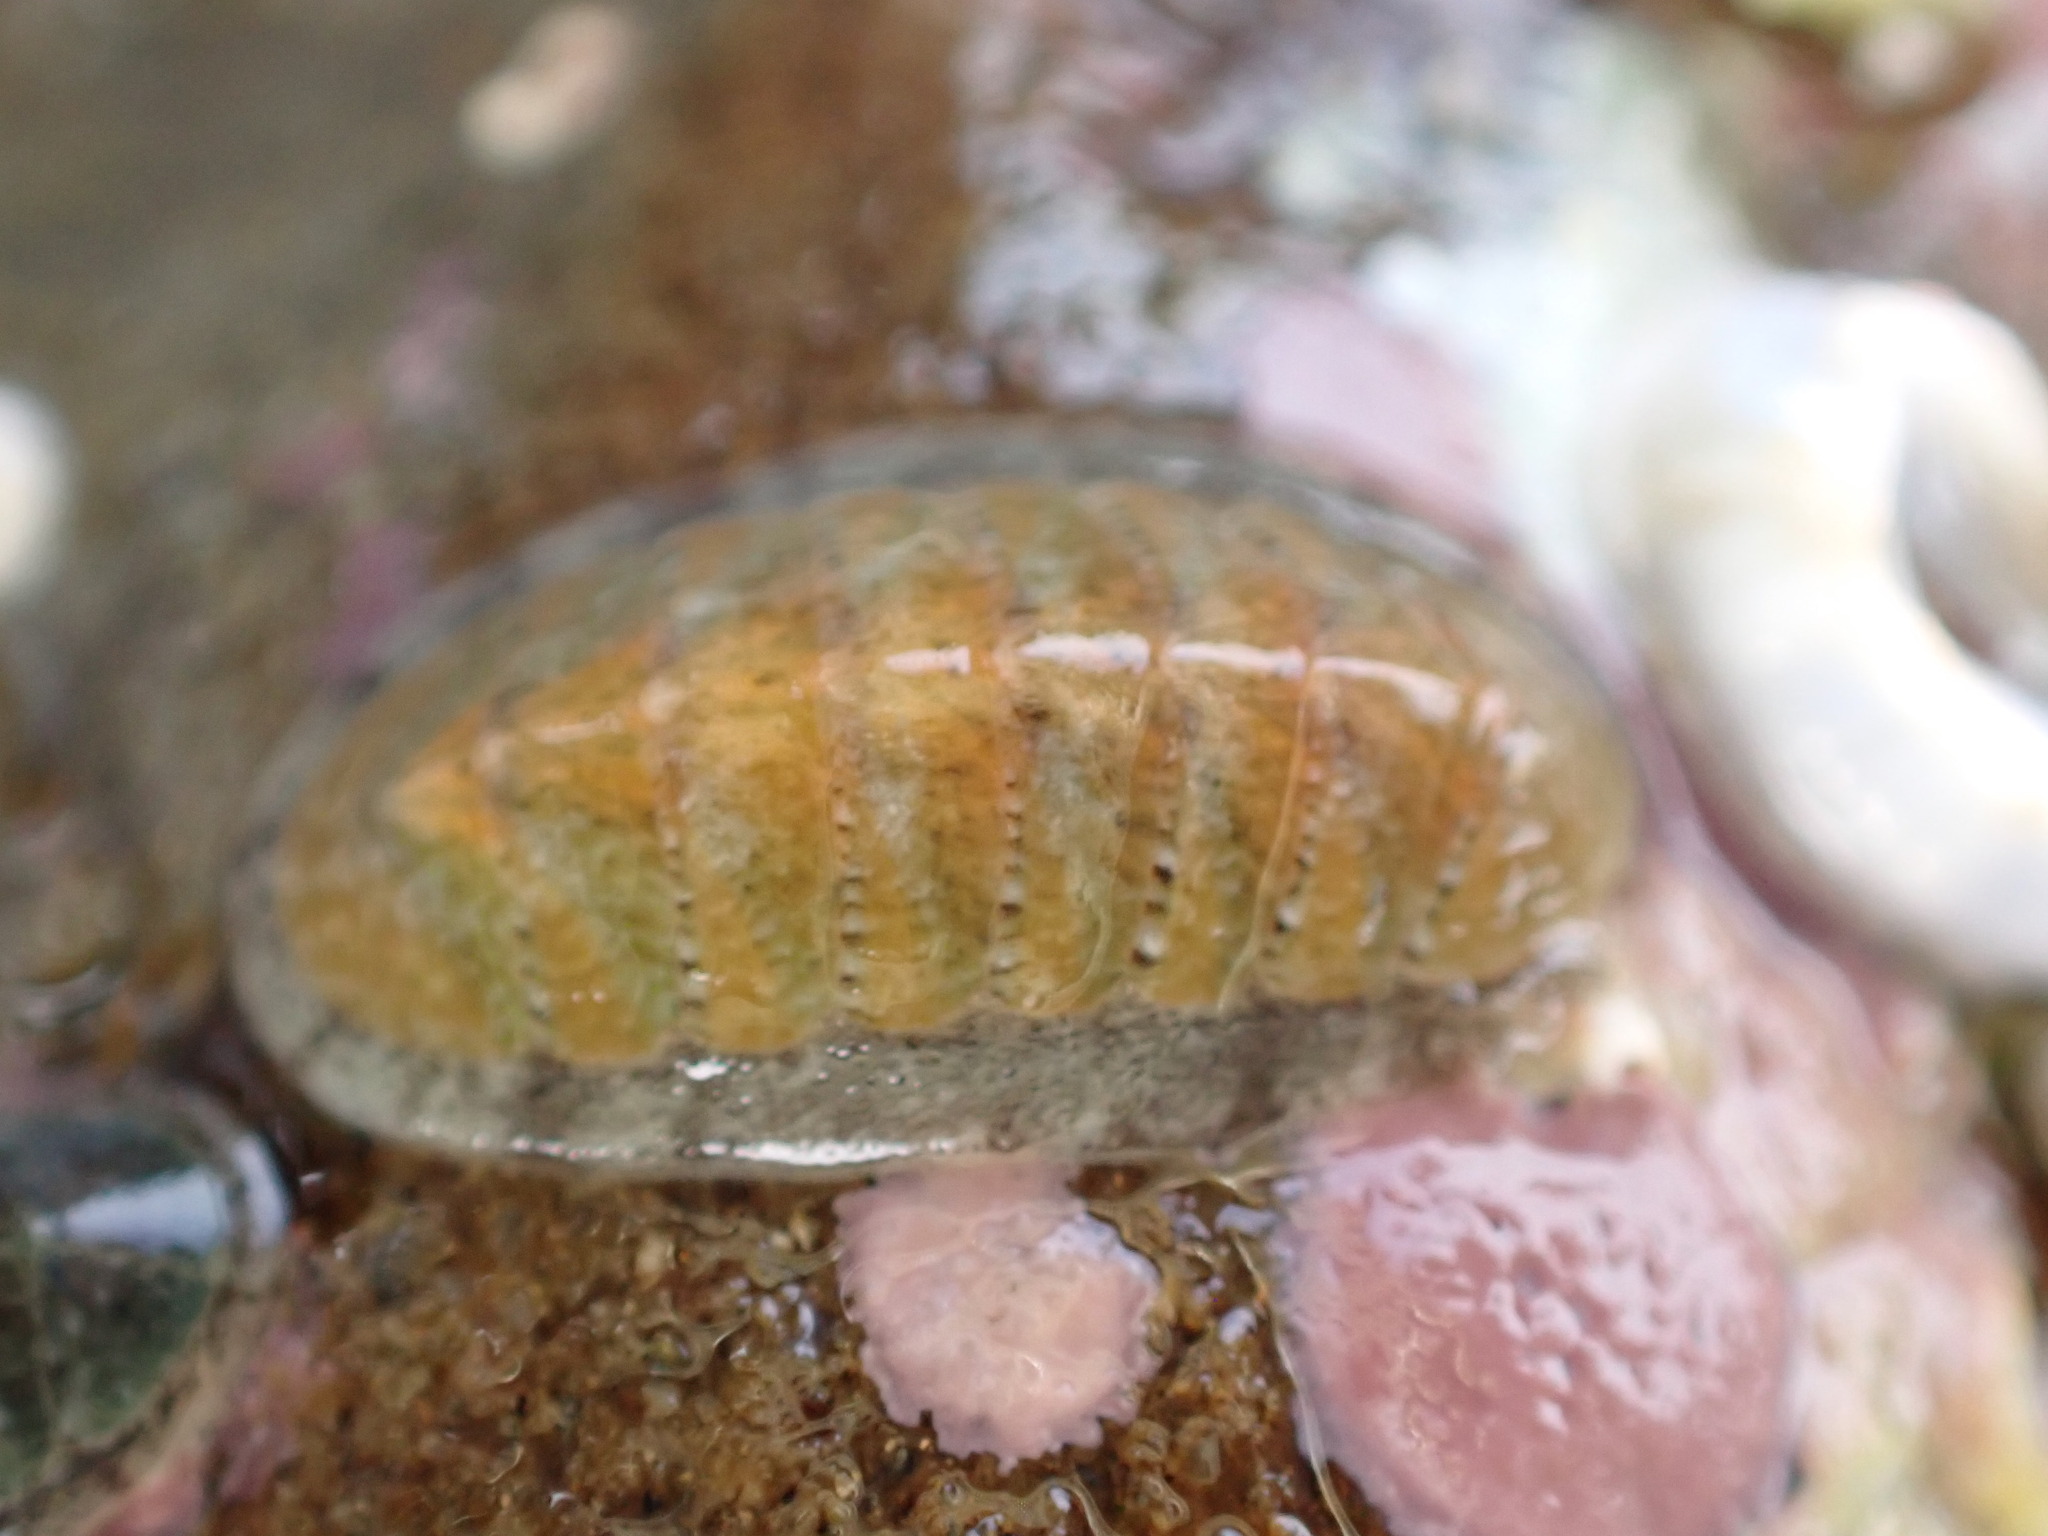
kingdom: Animalia
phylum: Mollusca
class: Polyplacophora
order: Chitonida
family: Ischnochitonidae
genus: Ischnochiton
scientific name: Ischnochiton maorianus
